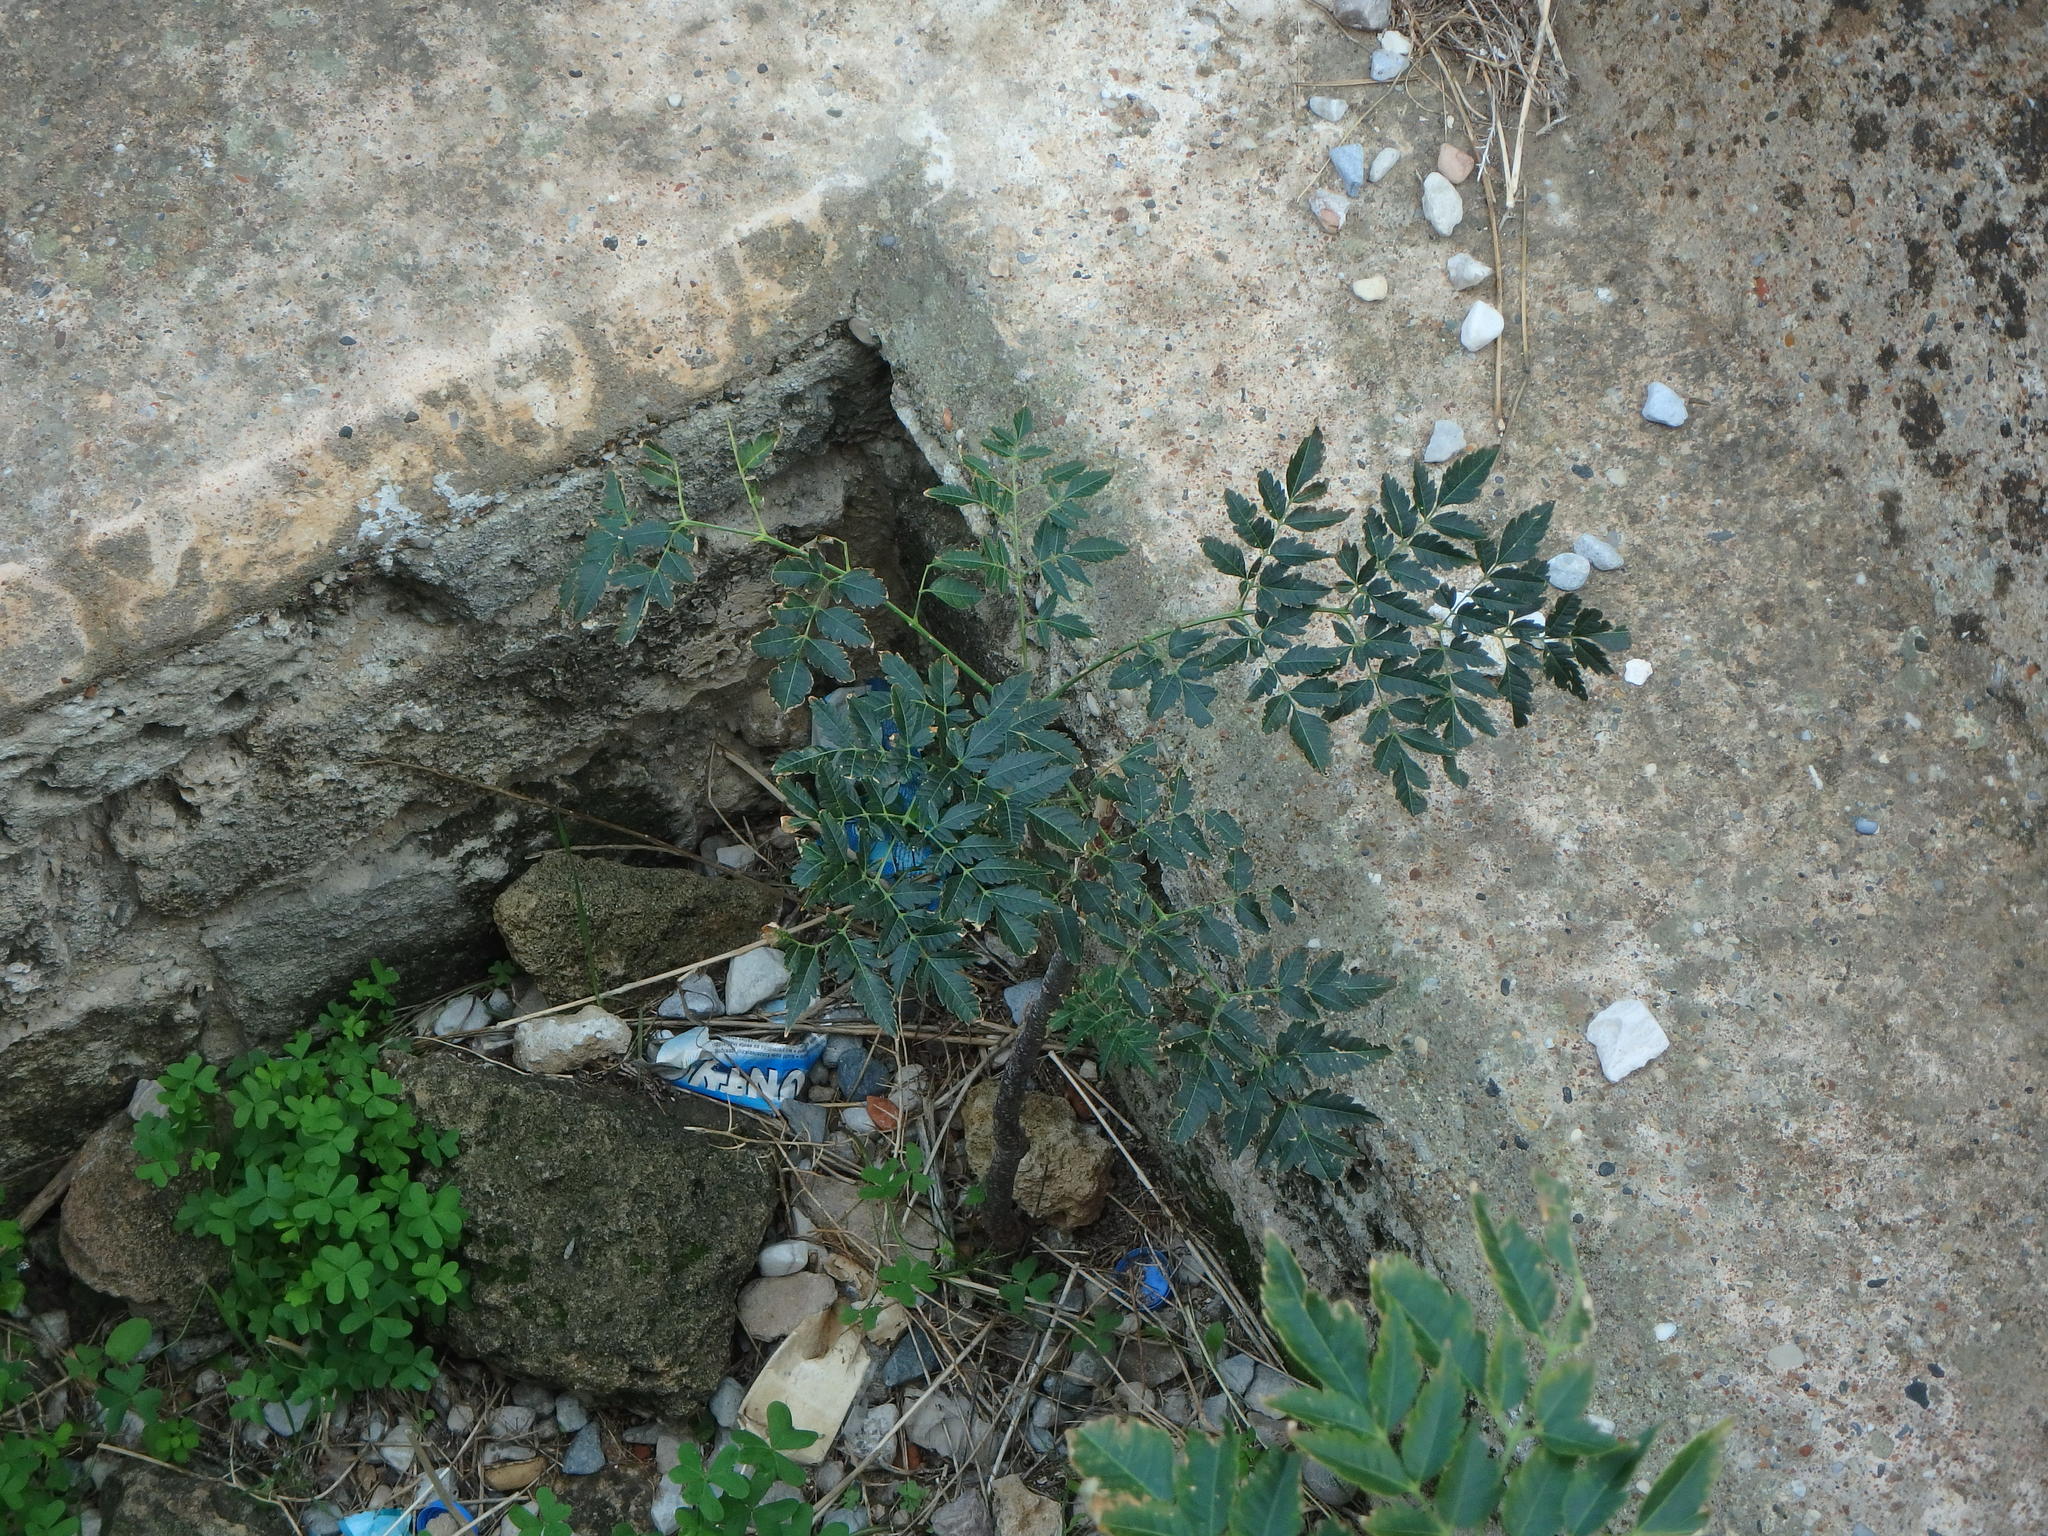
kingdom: Plantae
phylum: Tracheophyta
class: Magnoliopsida
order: Sapindales
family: Meliaceae
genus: Melia
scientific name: Melia azedarach
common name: Chinaberrytree
